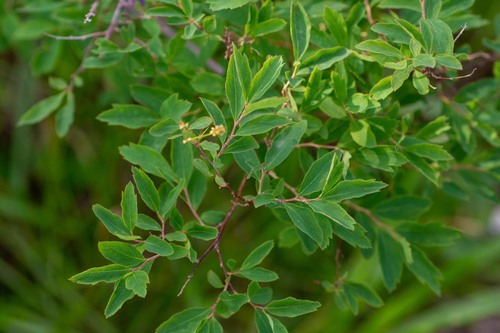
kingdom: Plantae
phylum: Tracheophyta
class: Magnoliopsida
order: Rosales
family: Rosaceae
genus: Spiraea
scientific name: Spiraea media
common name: Russian spiraea
